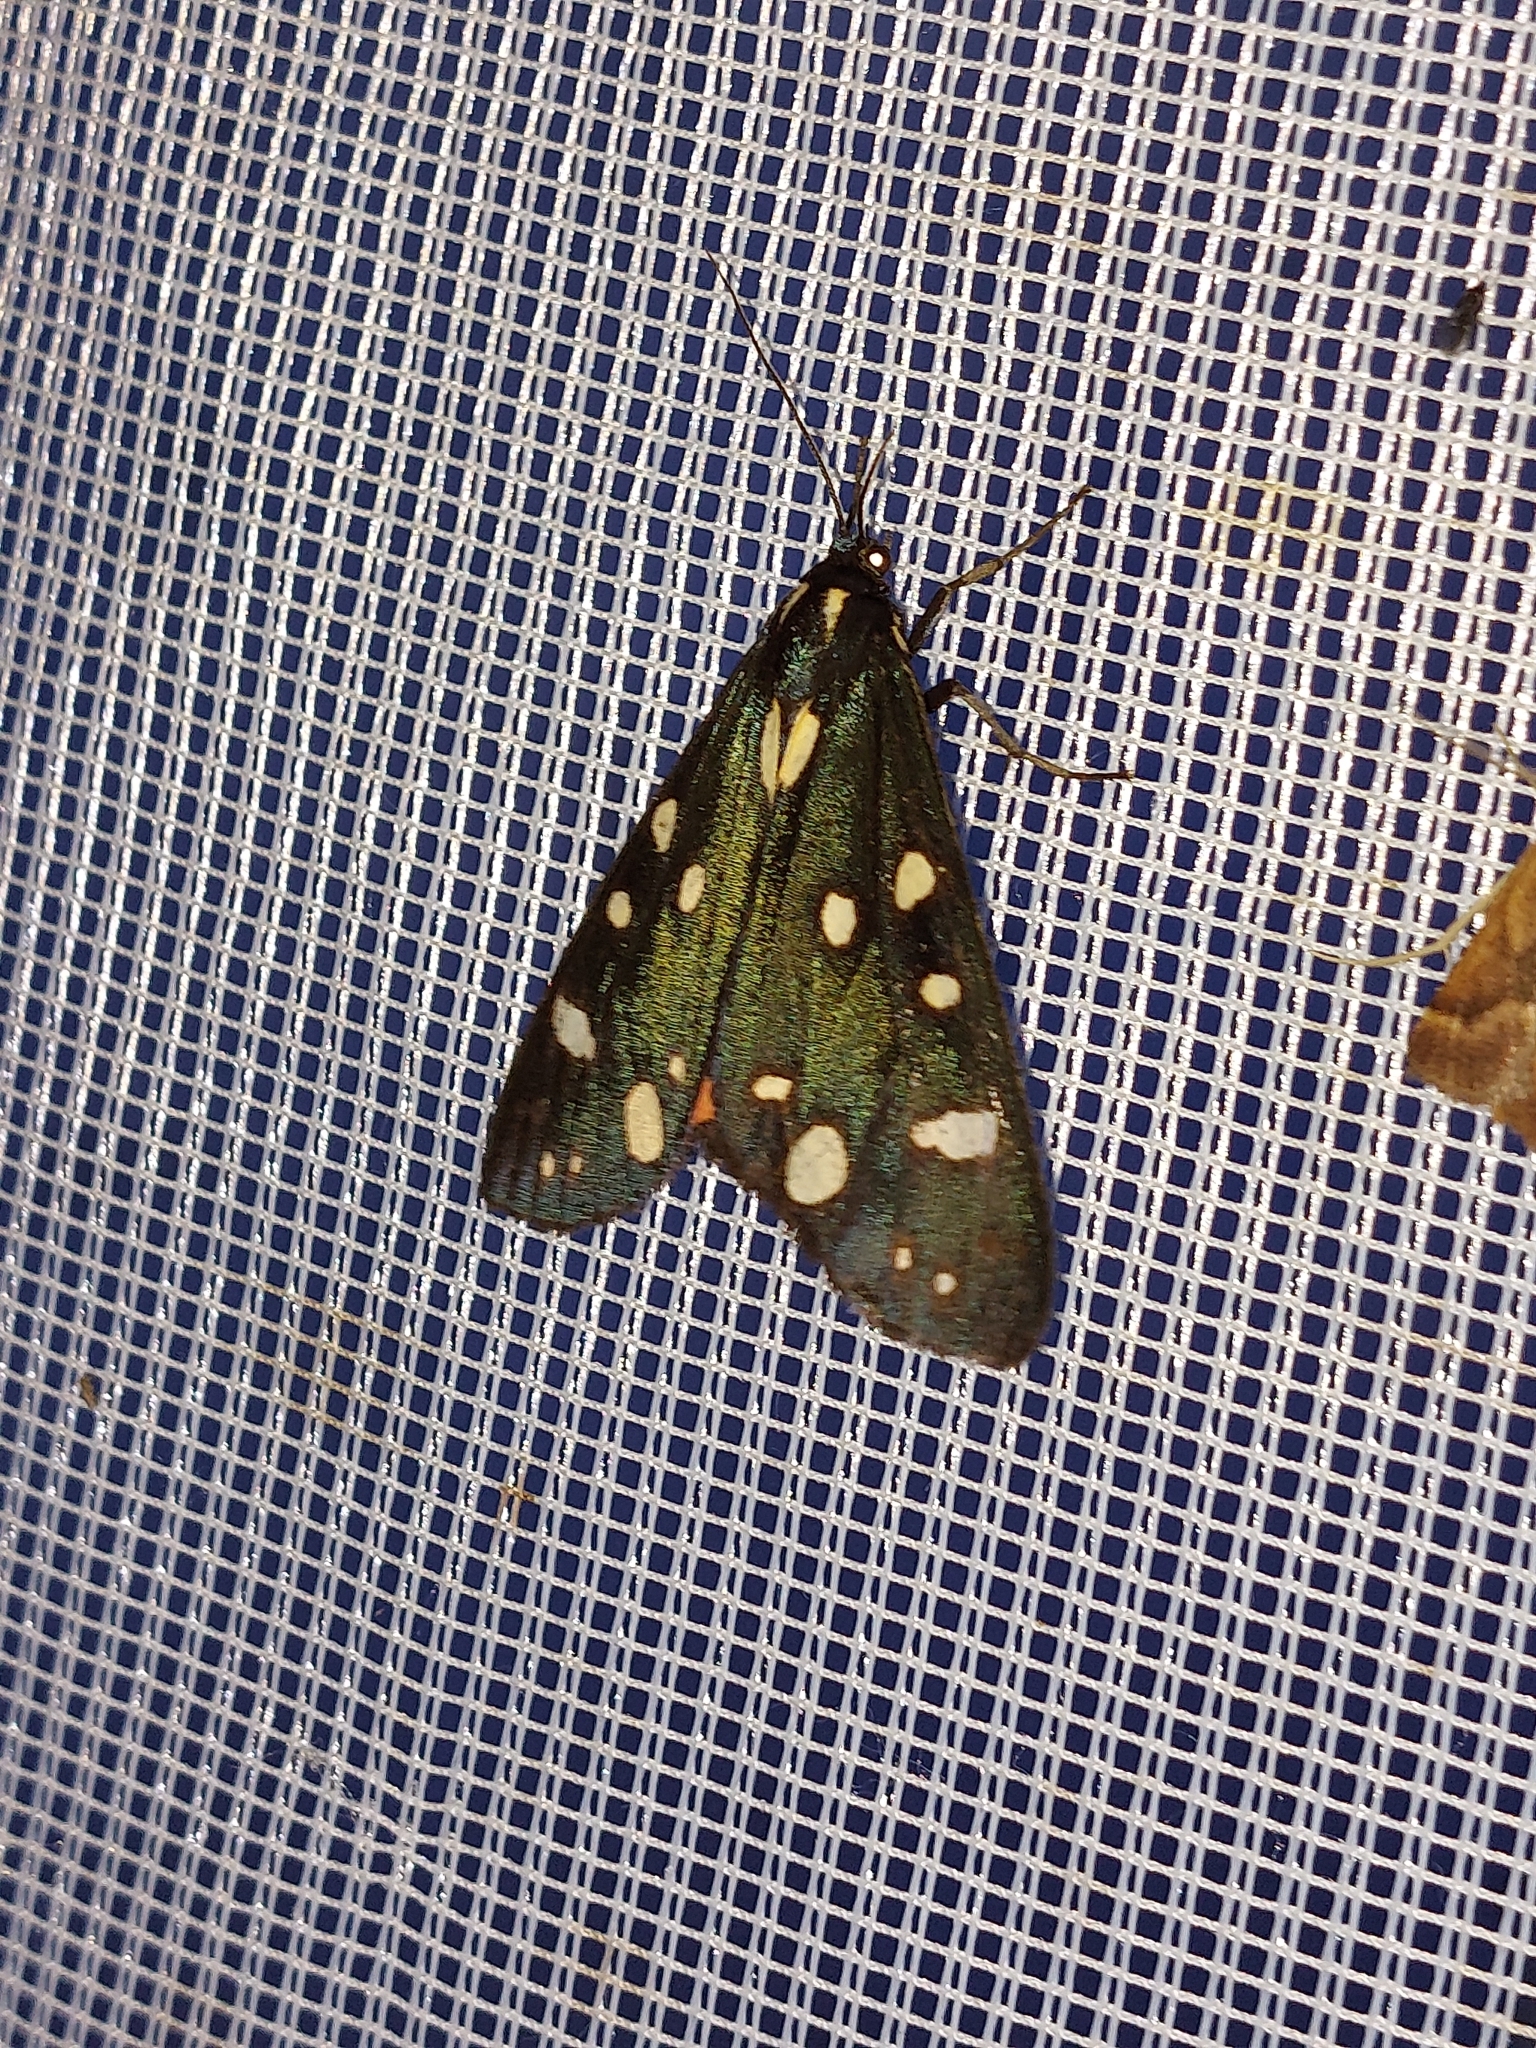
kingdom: Animalia
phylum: Arthropoda
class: Insecta
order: Lepidoptera
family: Erebidae
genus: Callimorpha
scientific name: Callimorpha dominula
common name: Scarlet tiger
